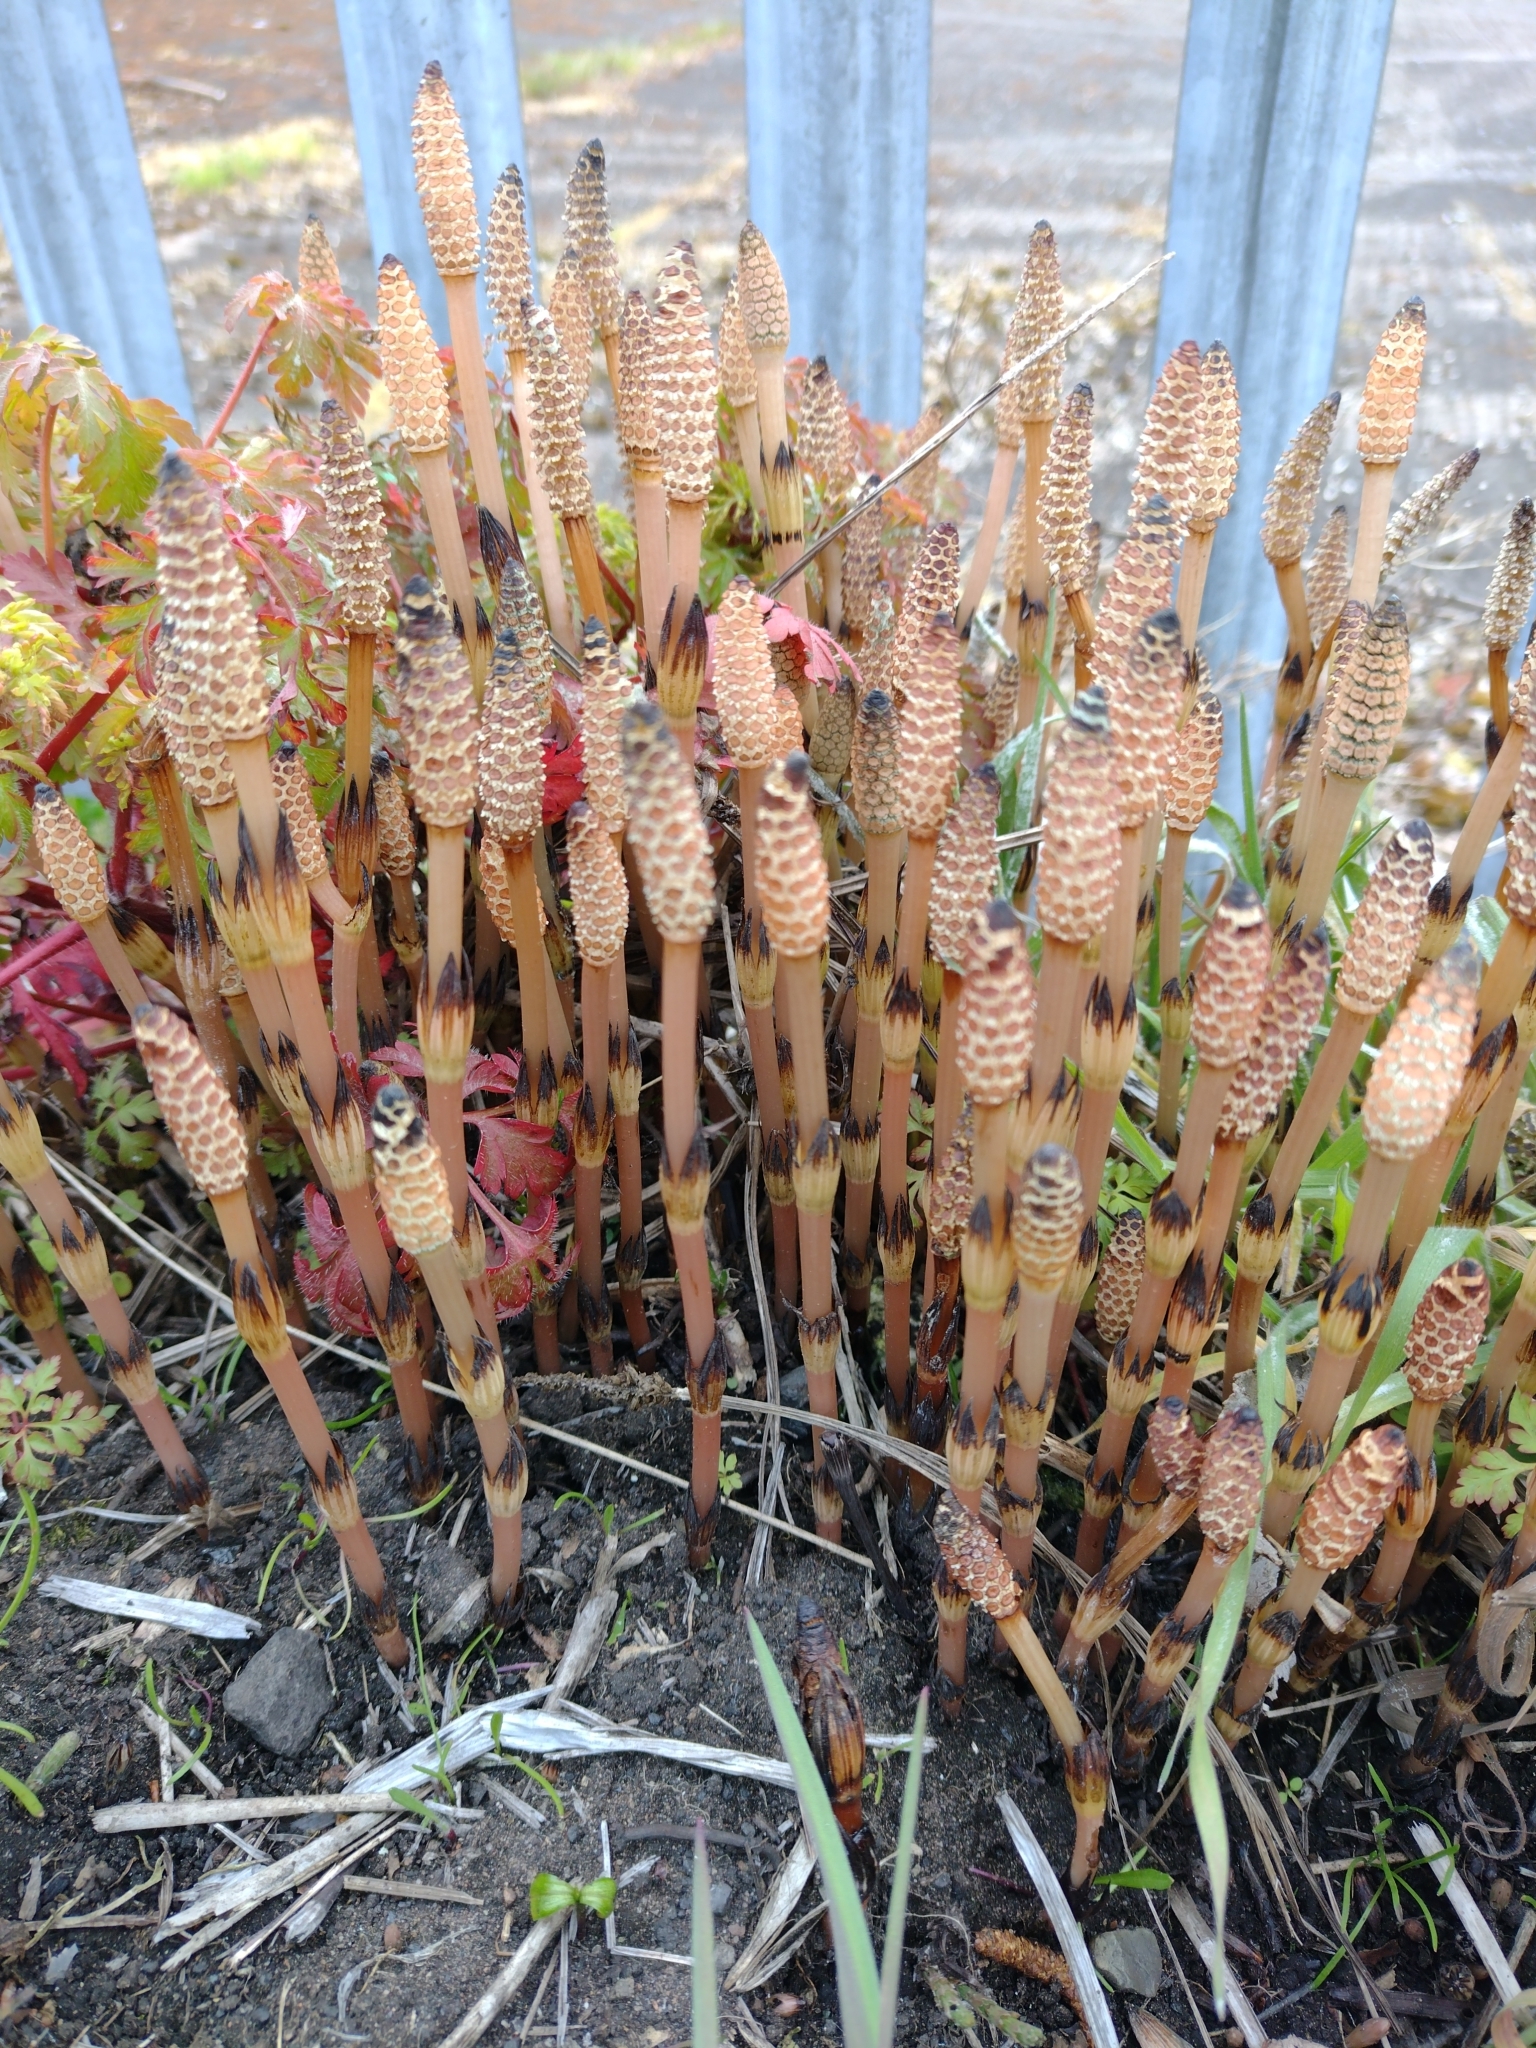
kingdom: Plantae
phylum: Tracheophyta
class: Polypodiopsida
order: Equisetales
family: Equisetaceae
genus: Equisetum
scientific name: Equisetum arvense
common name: Field horsetail
